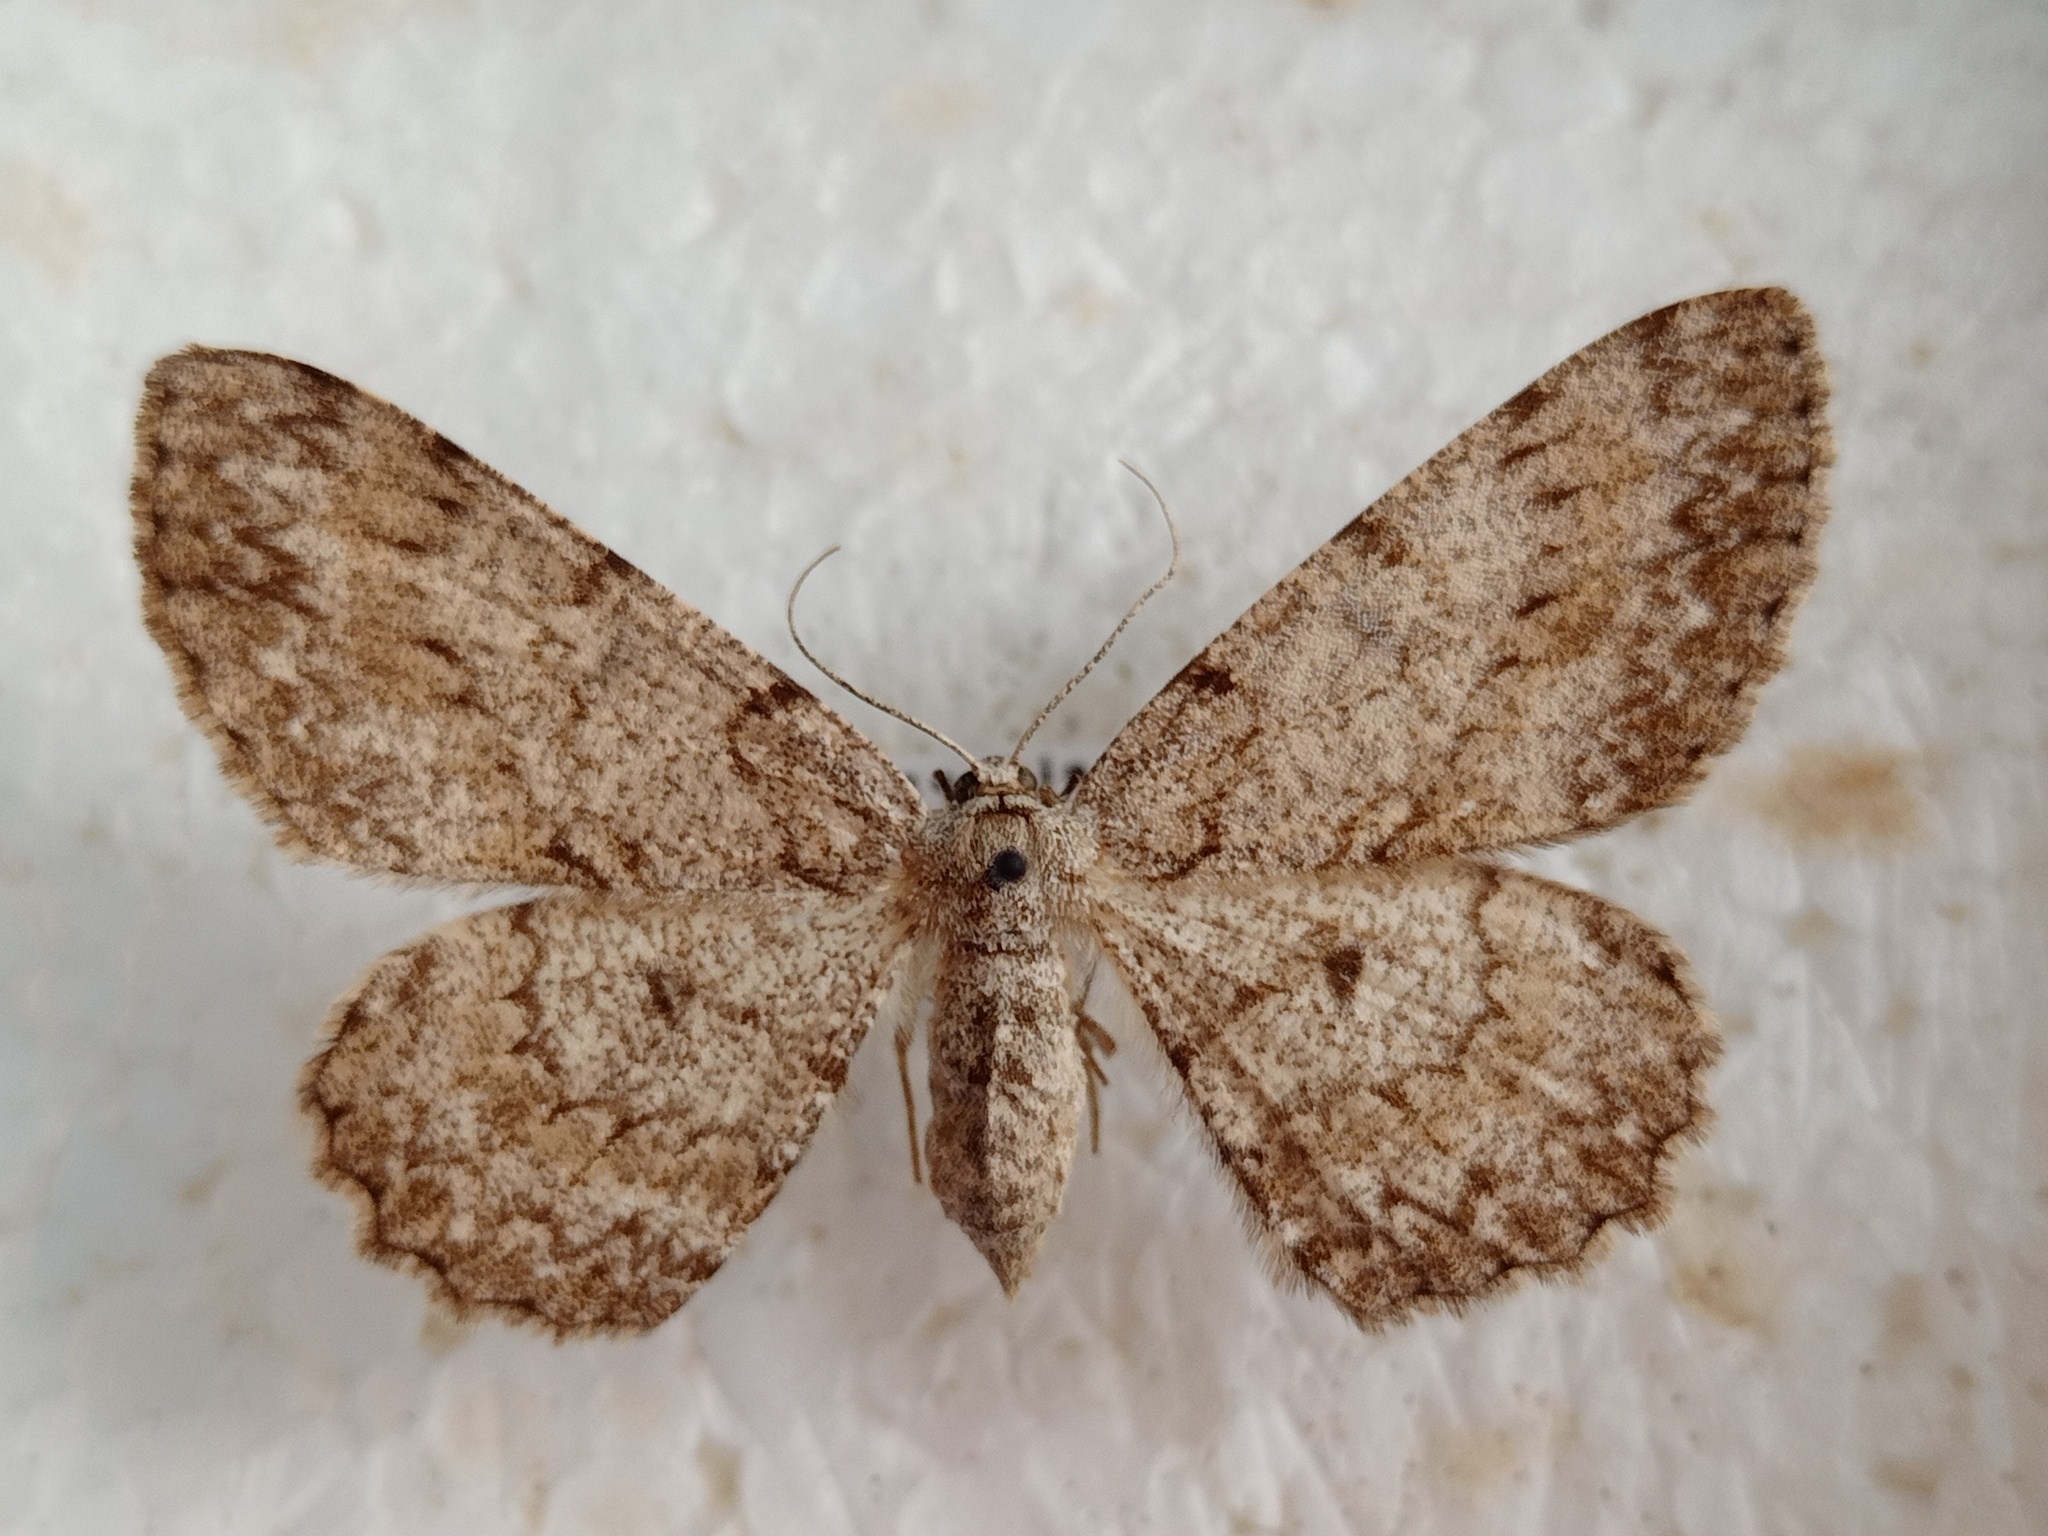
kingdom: Animalia
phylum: Arthropoda
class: Insecta
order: Lepidoptera
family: Geometridae
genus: Hypomecis
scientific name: Hypomecis punctinalis
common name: Pale oak beauty
